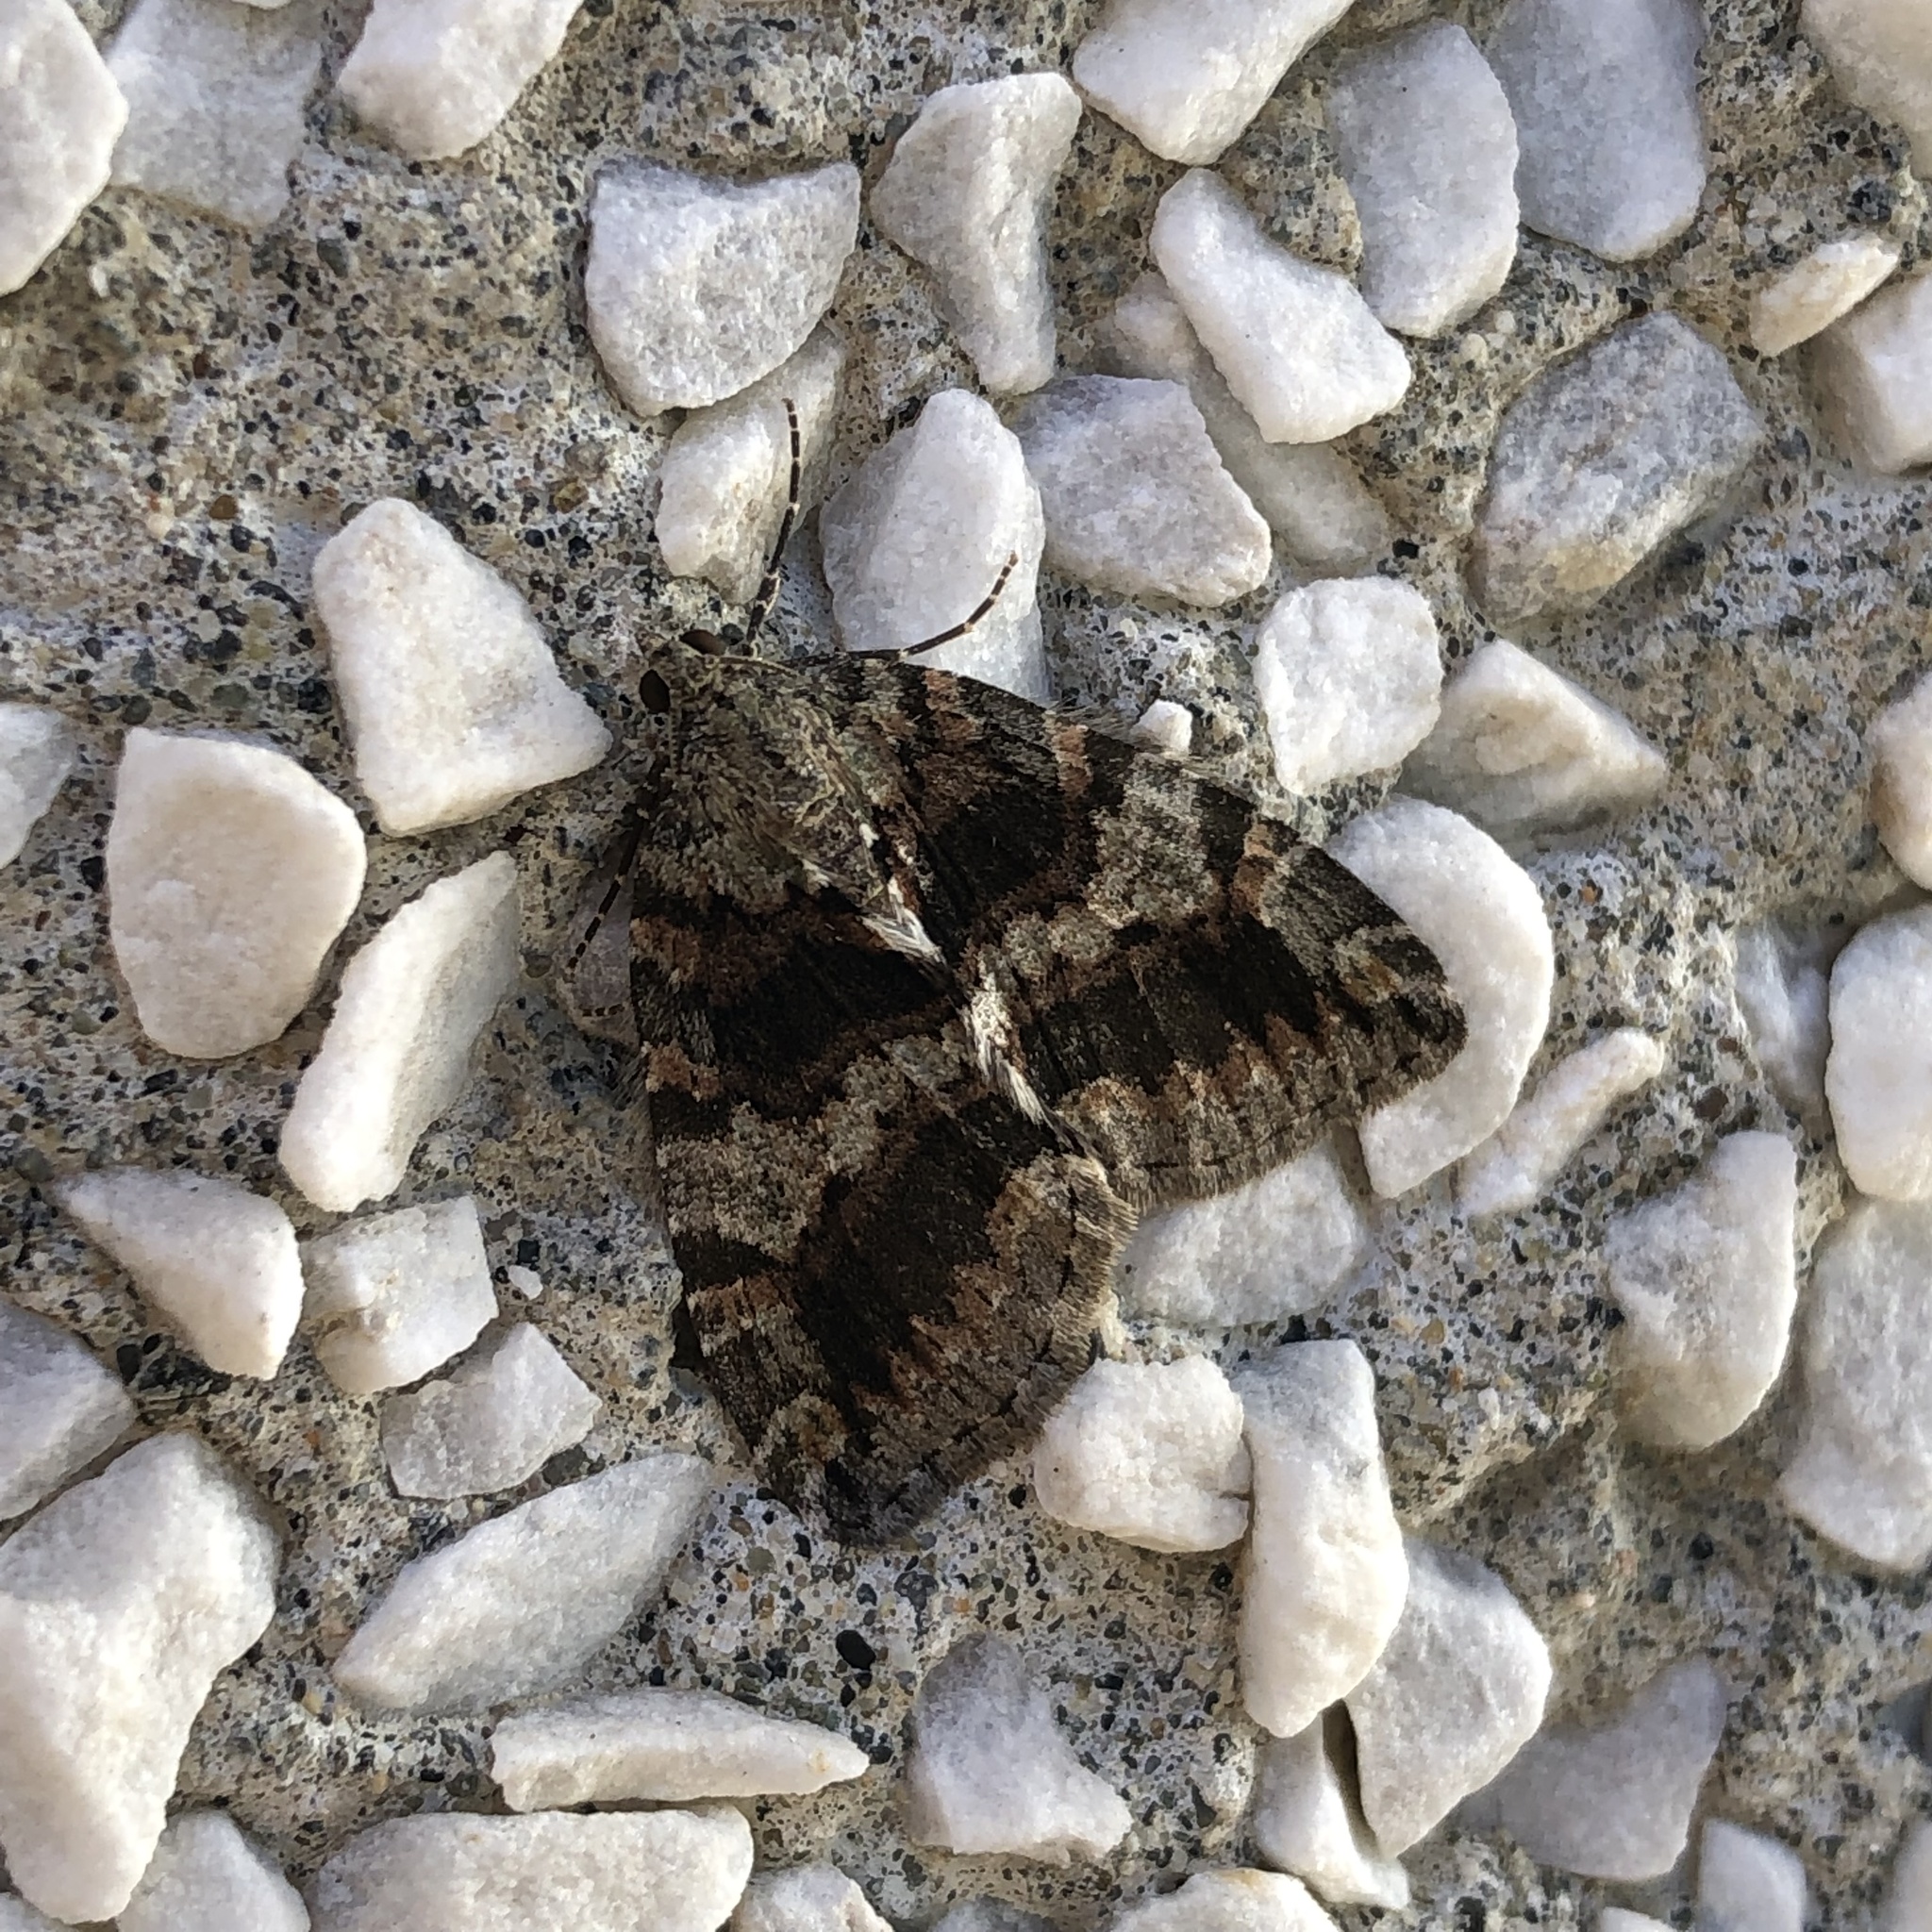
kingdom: Animalia
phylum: Arthropoda
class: Insecta
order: Lepidoptera
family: Geometridae
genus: Hydriomena
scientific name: Hydriomena nubilofasciata
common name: Oak winter highflier moth
